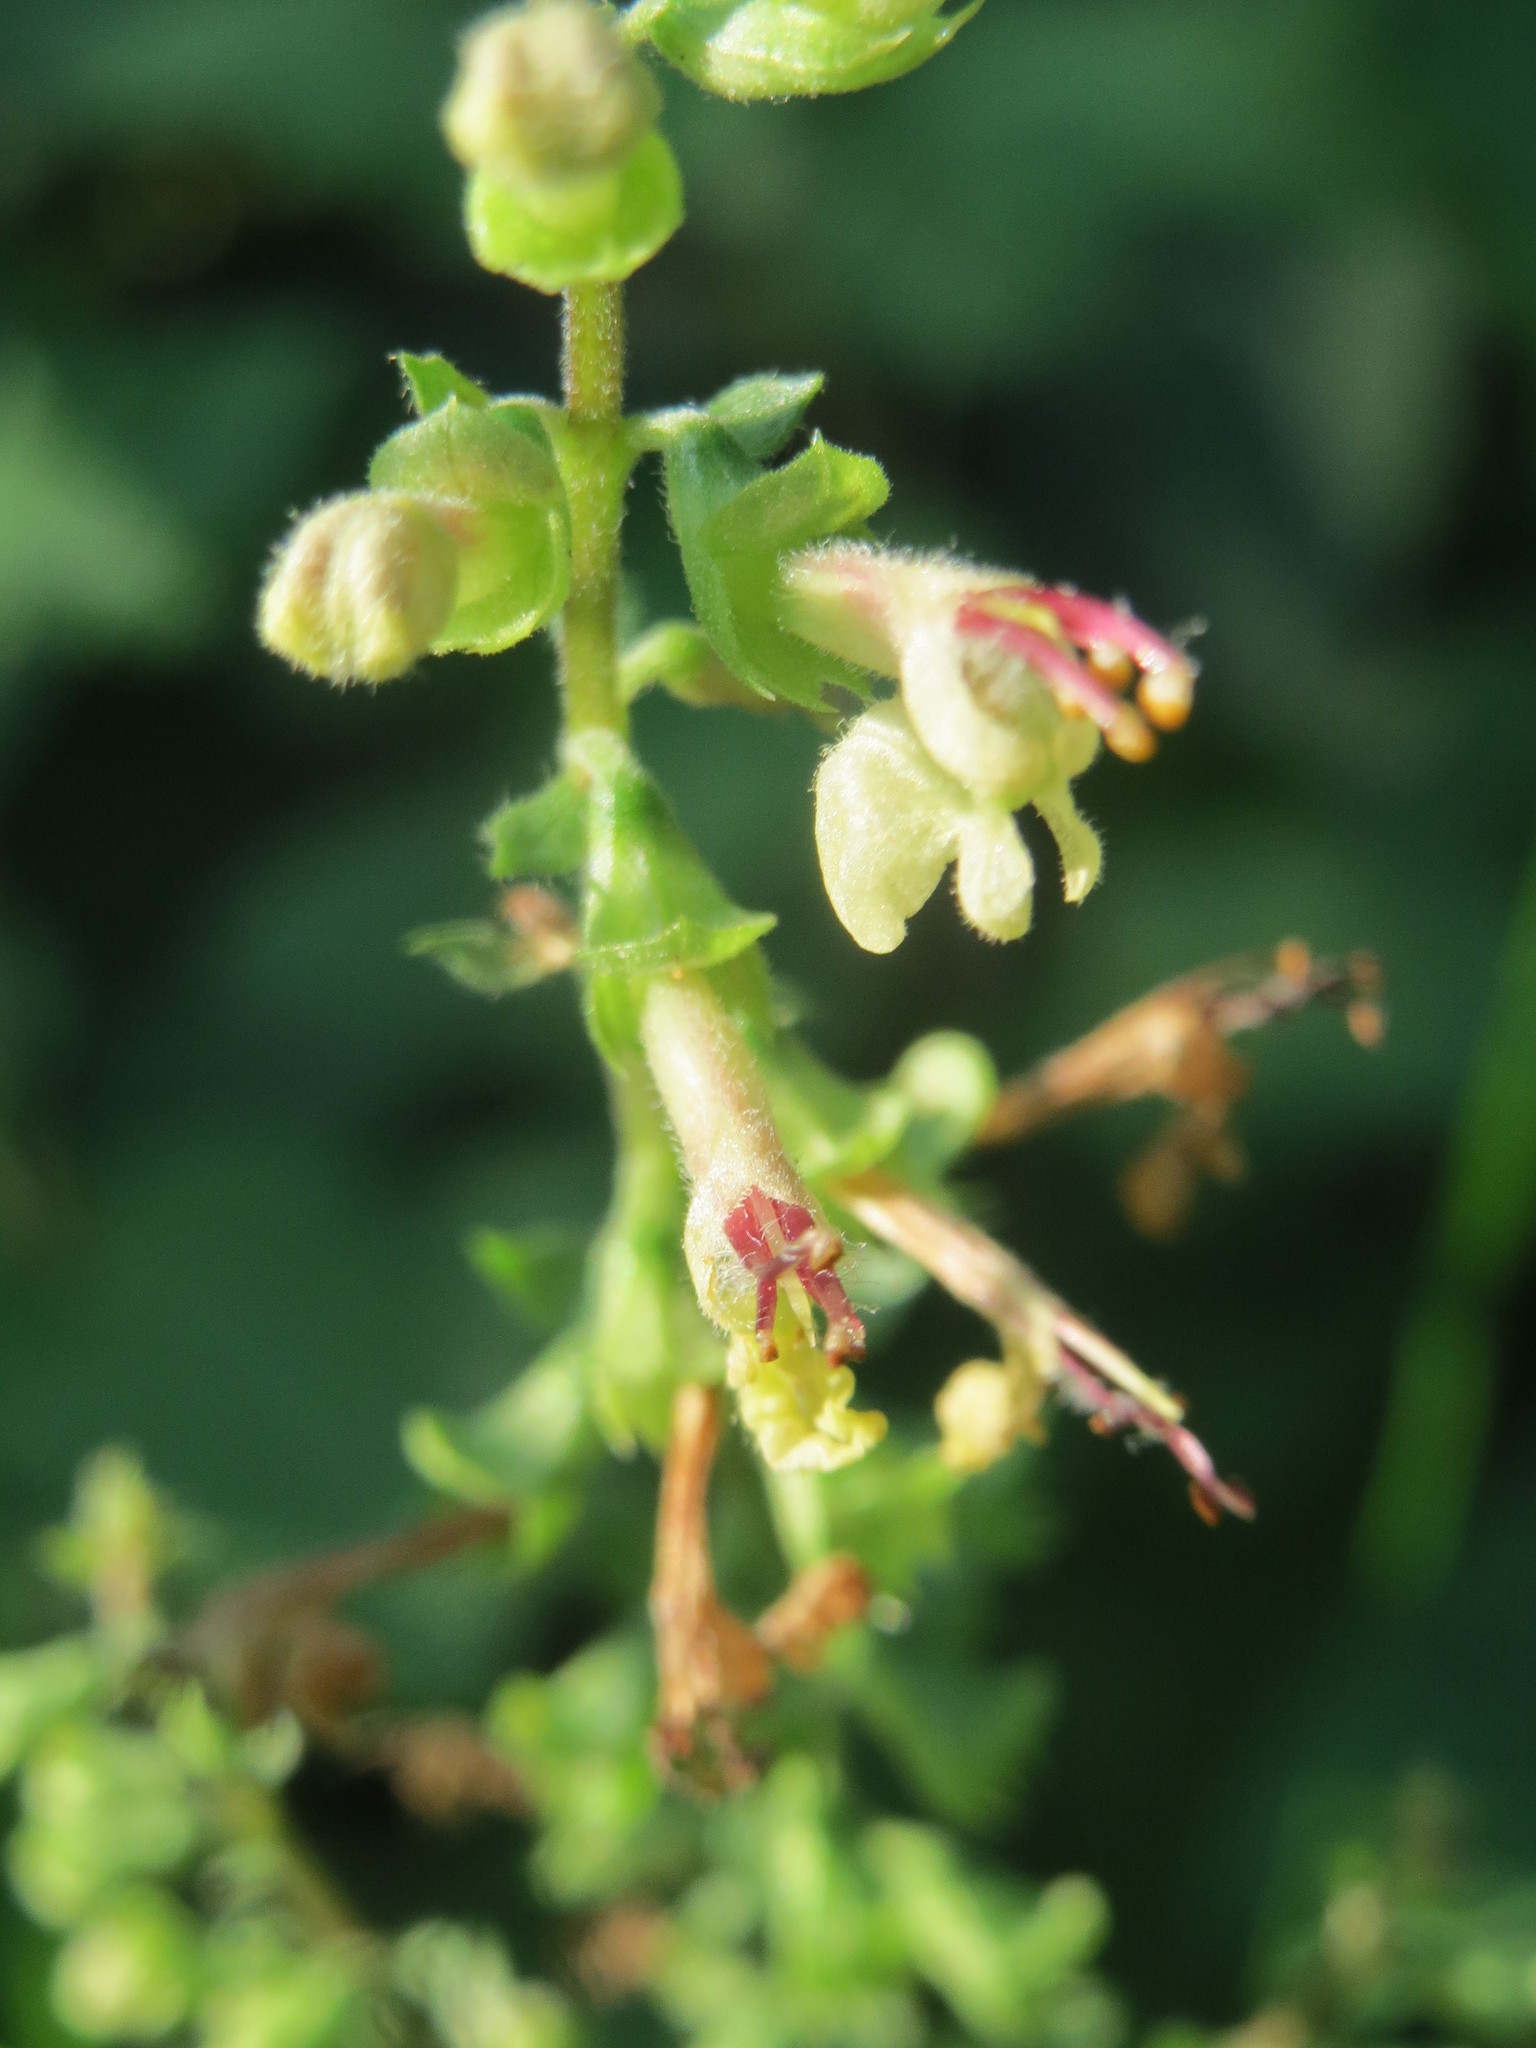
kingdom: Plantae
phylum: Tracheophyta
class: Magnoliopsida
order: Lamiales
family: Lamiaceae
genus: Teucrium
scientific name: Teucrium scorodonia
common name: Woodland germander
